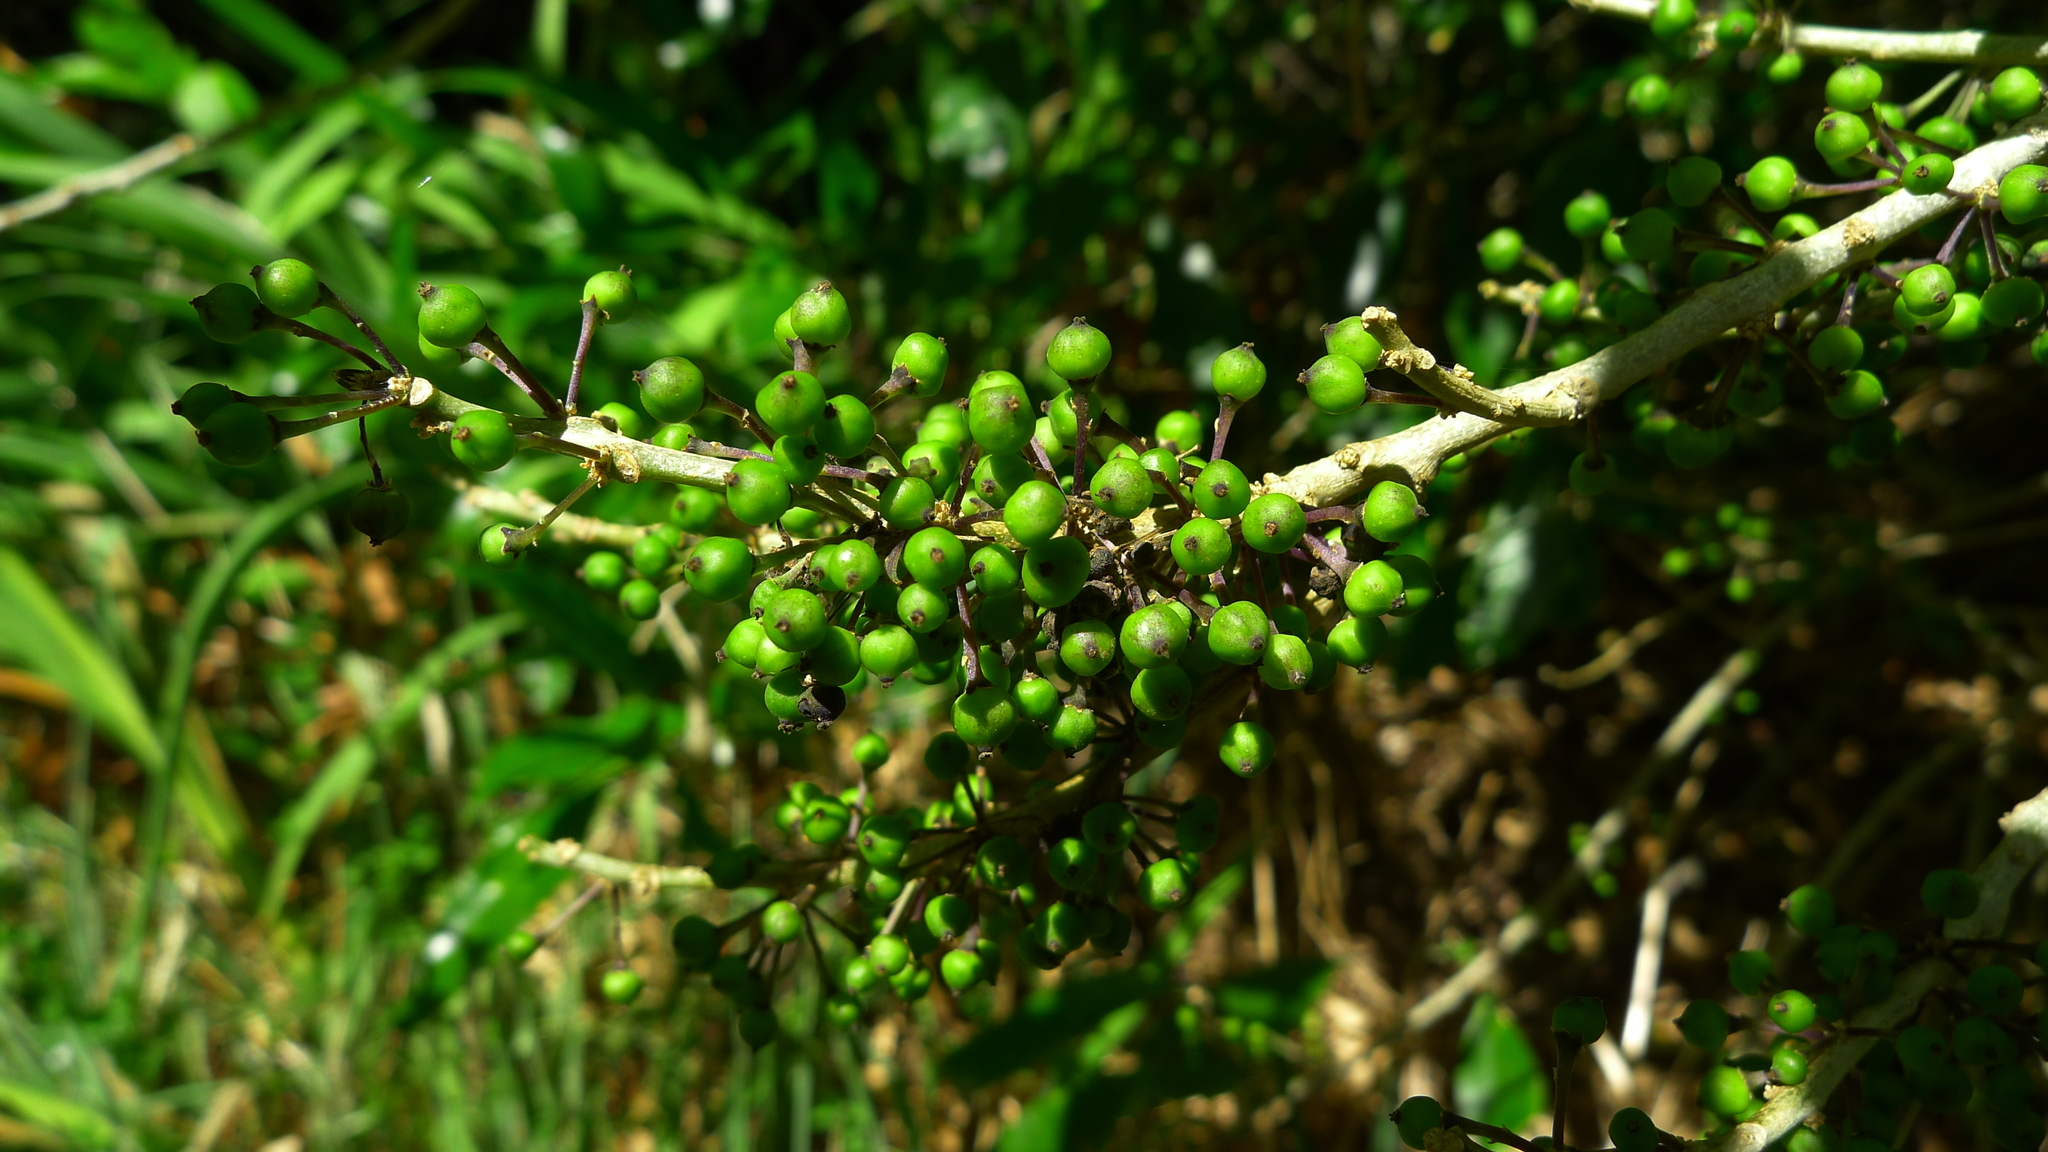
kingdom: Plantae
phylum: Tracheophyta
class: Magnoliopsida
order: Malpighiales
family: Violaceae
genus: Melicytus
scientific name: Melicytus ramiflorus
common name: Mahoe
